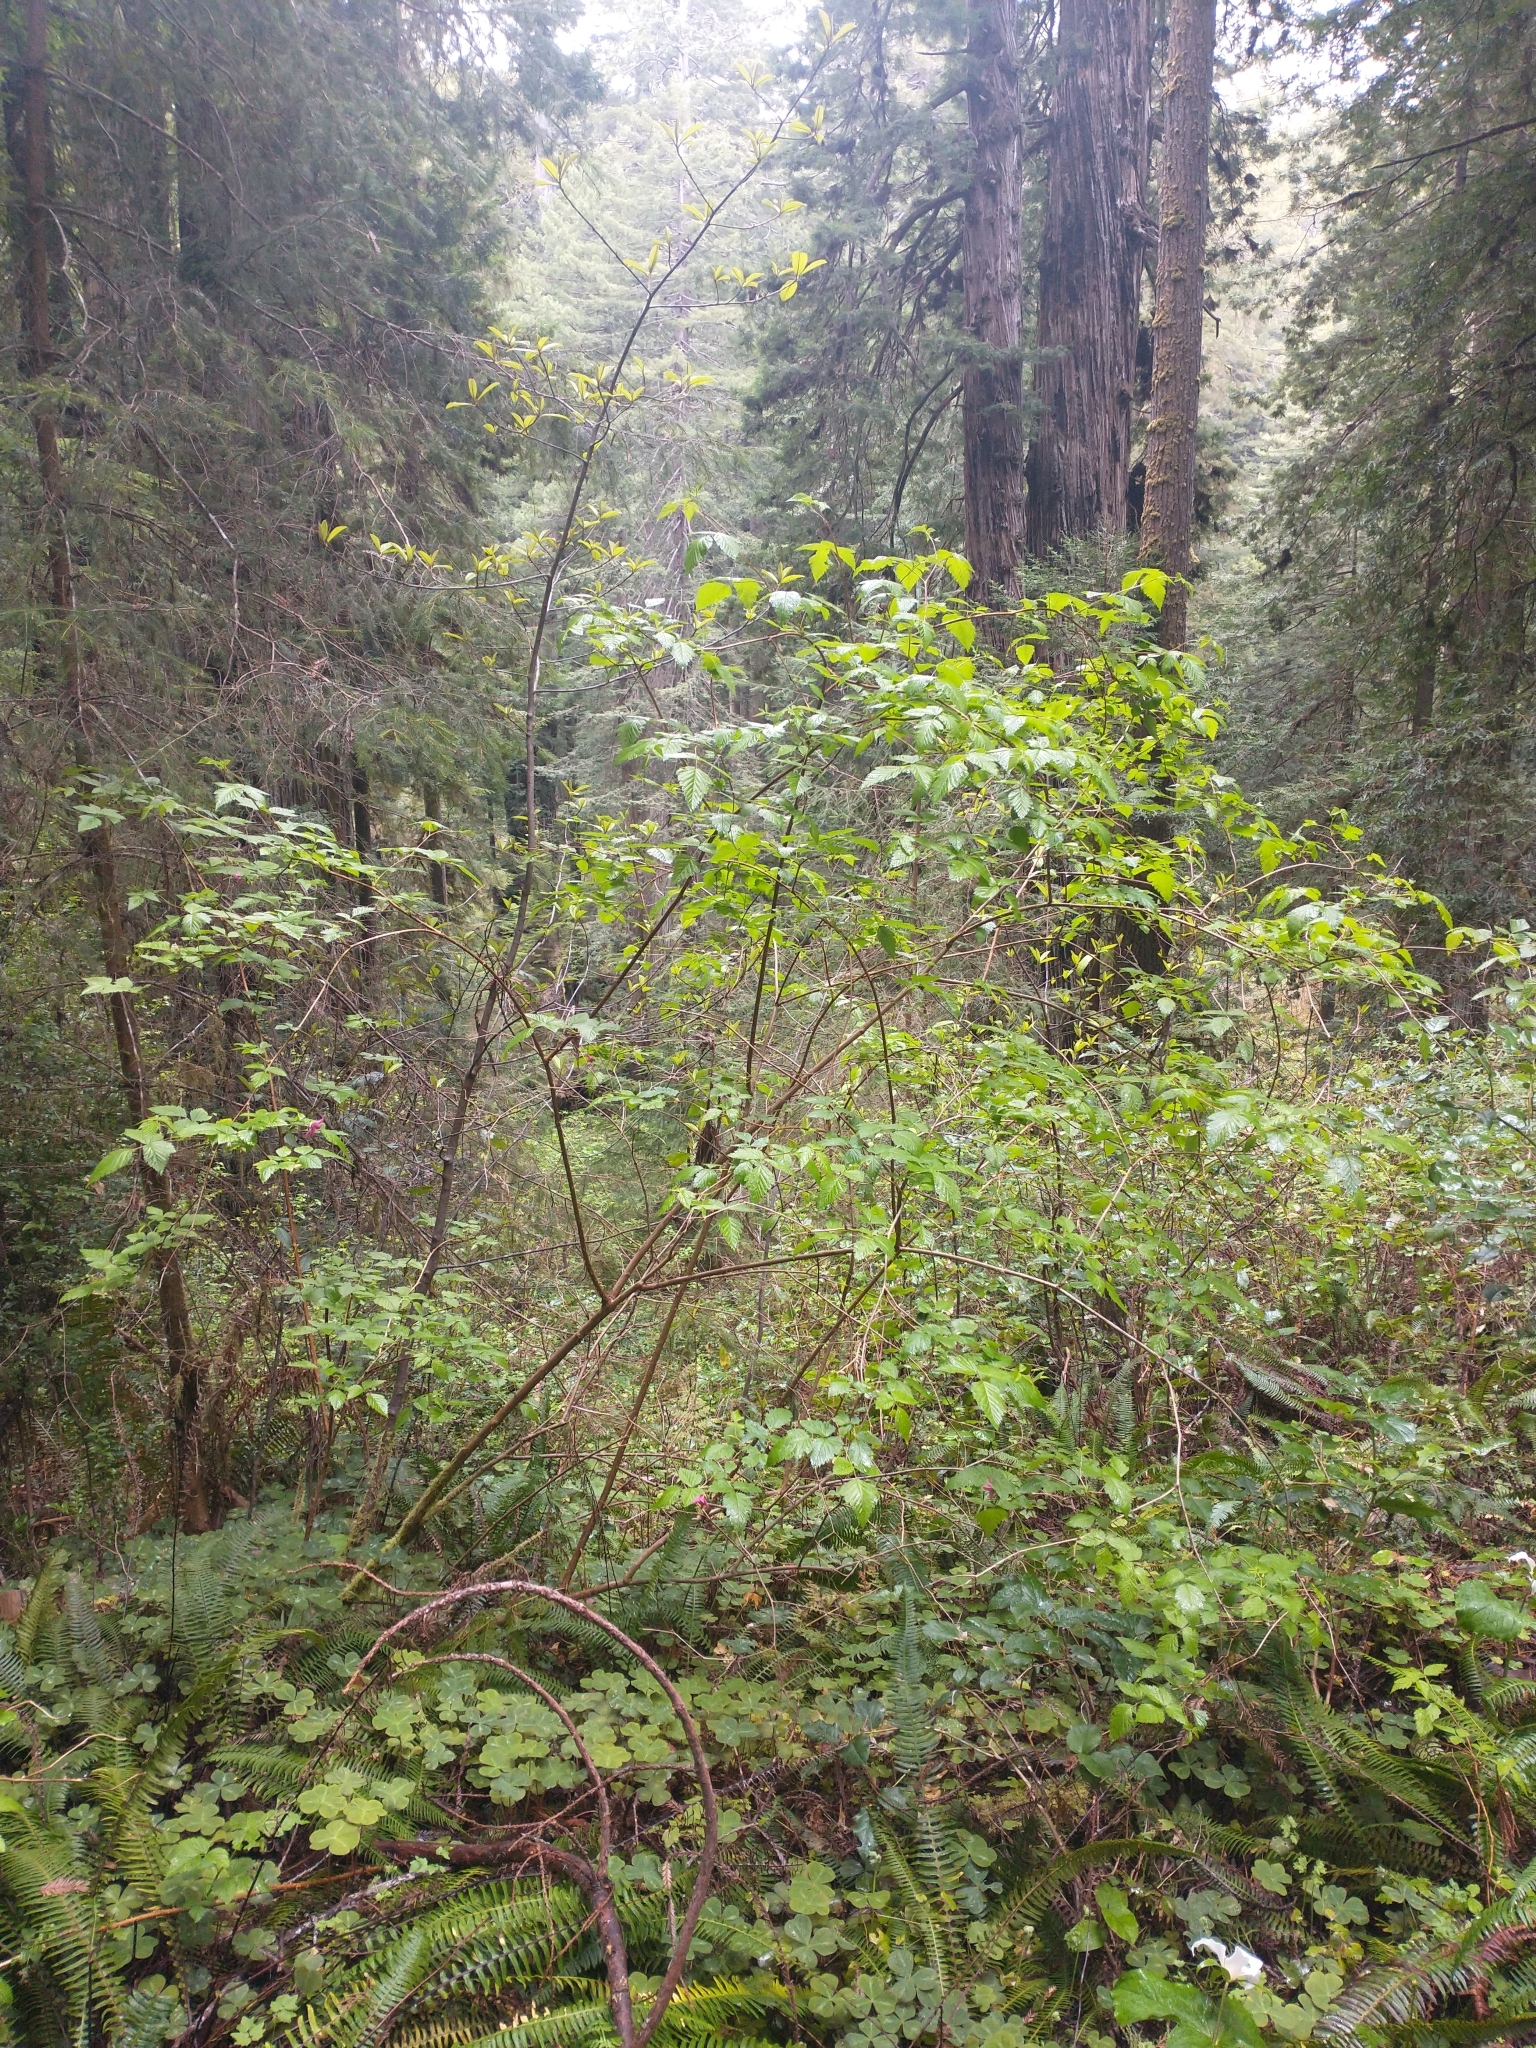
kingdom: Plantae
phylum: Tracheophyta
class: Magnoliopsida
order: Rosales
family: Rosaceae
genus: Rubus
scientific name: Rubus spectabilis
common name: Salmonberry
